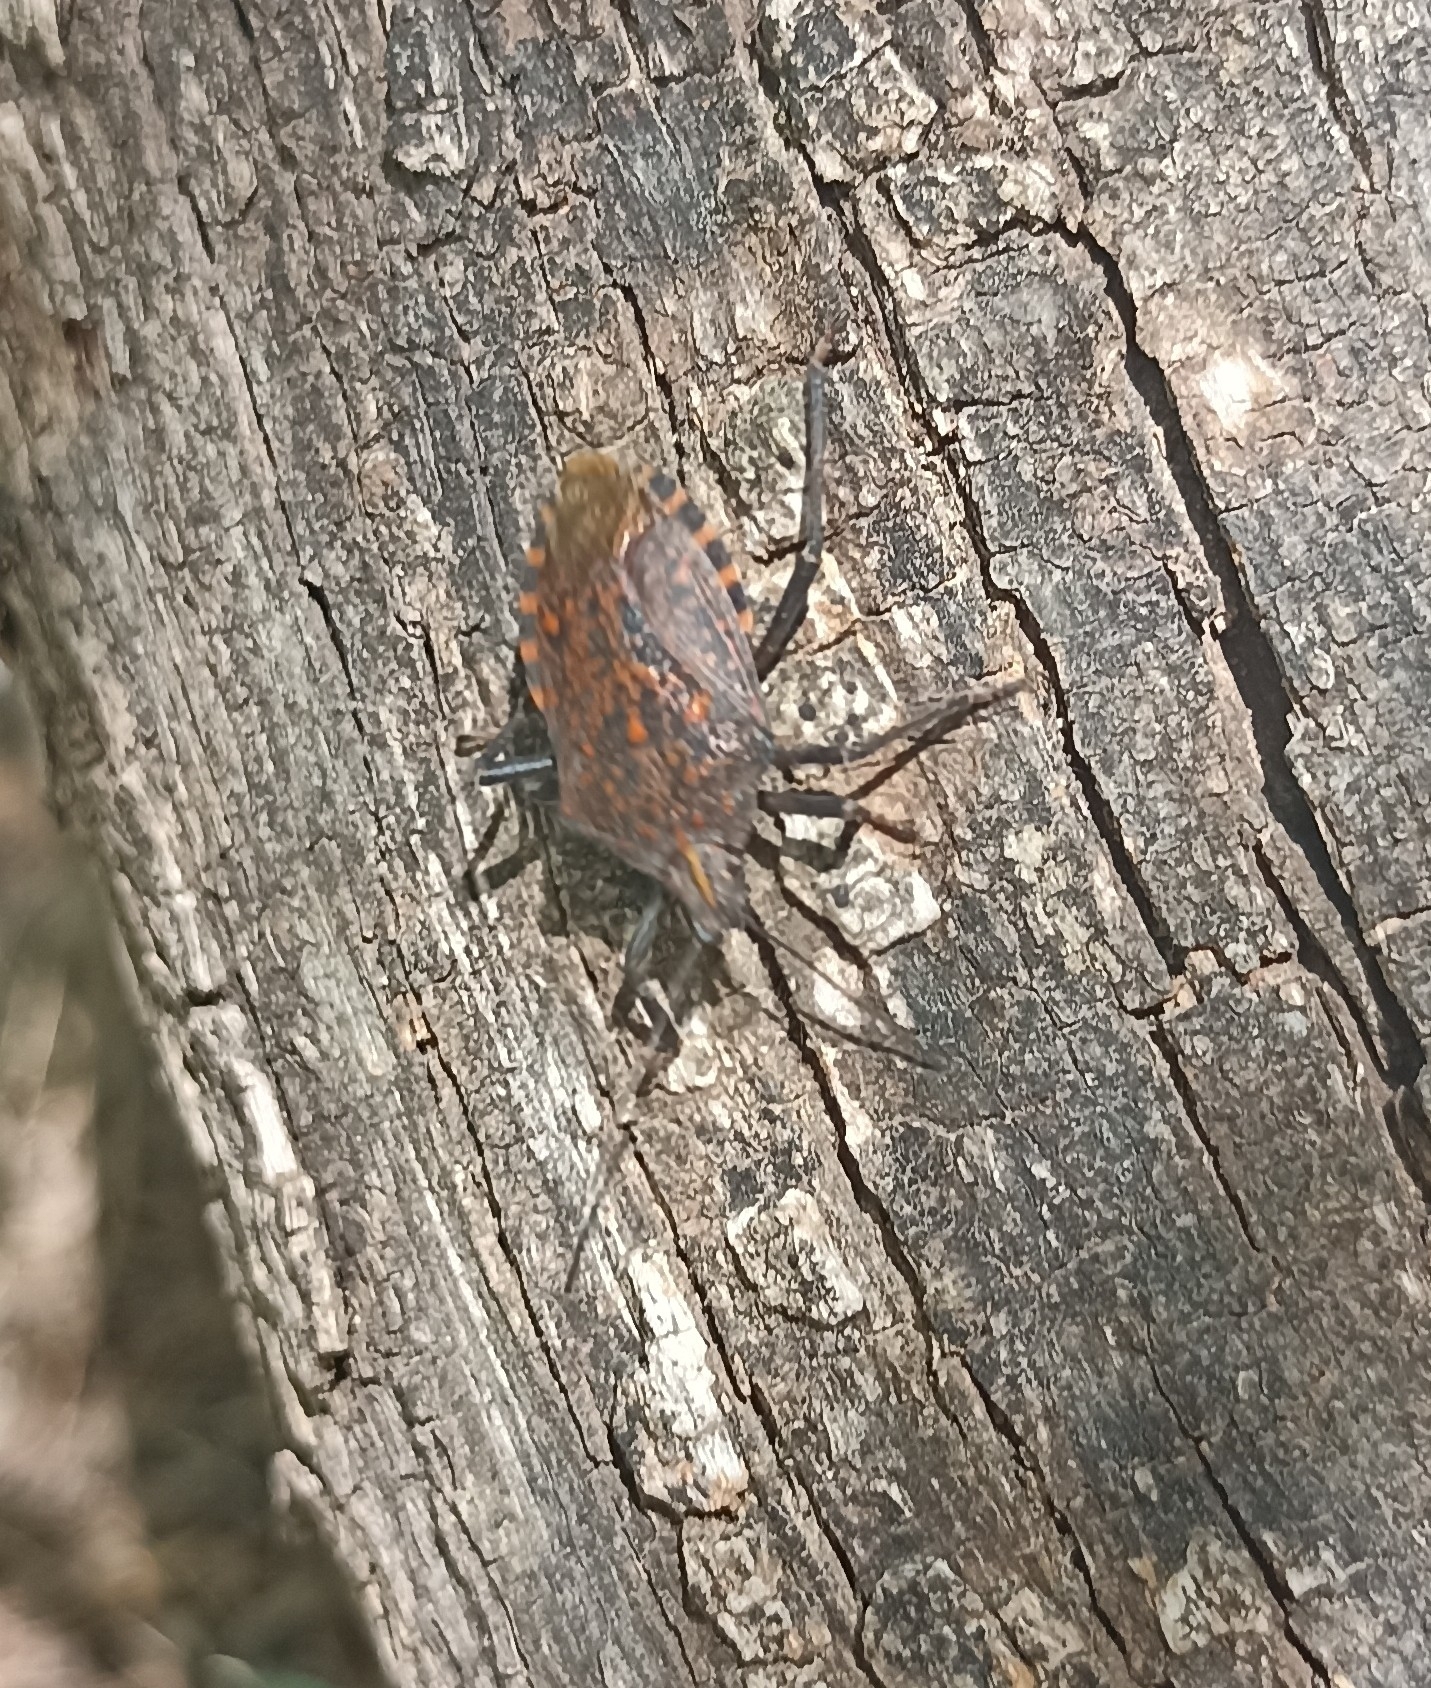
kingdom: Animalia
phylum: Arthropoda
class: Insecta
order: Hemiptera
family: Pentatomidae
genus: Apodiphus
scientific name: Apodiphus amygdali
